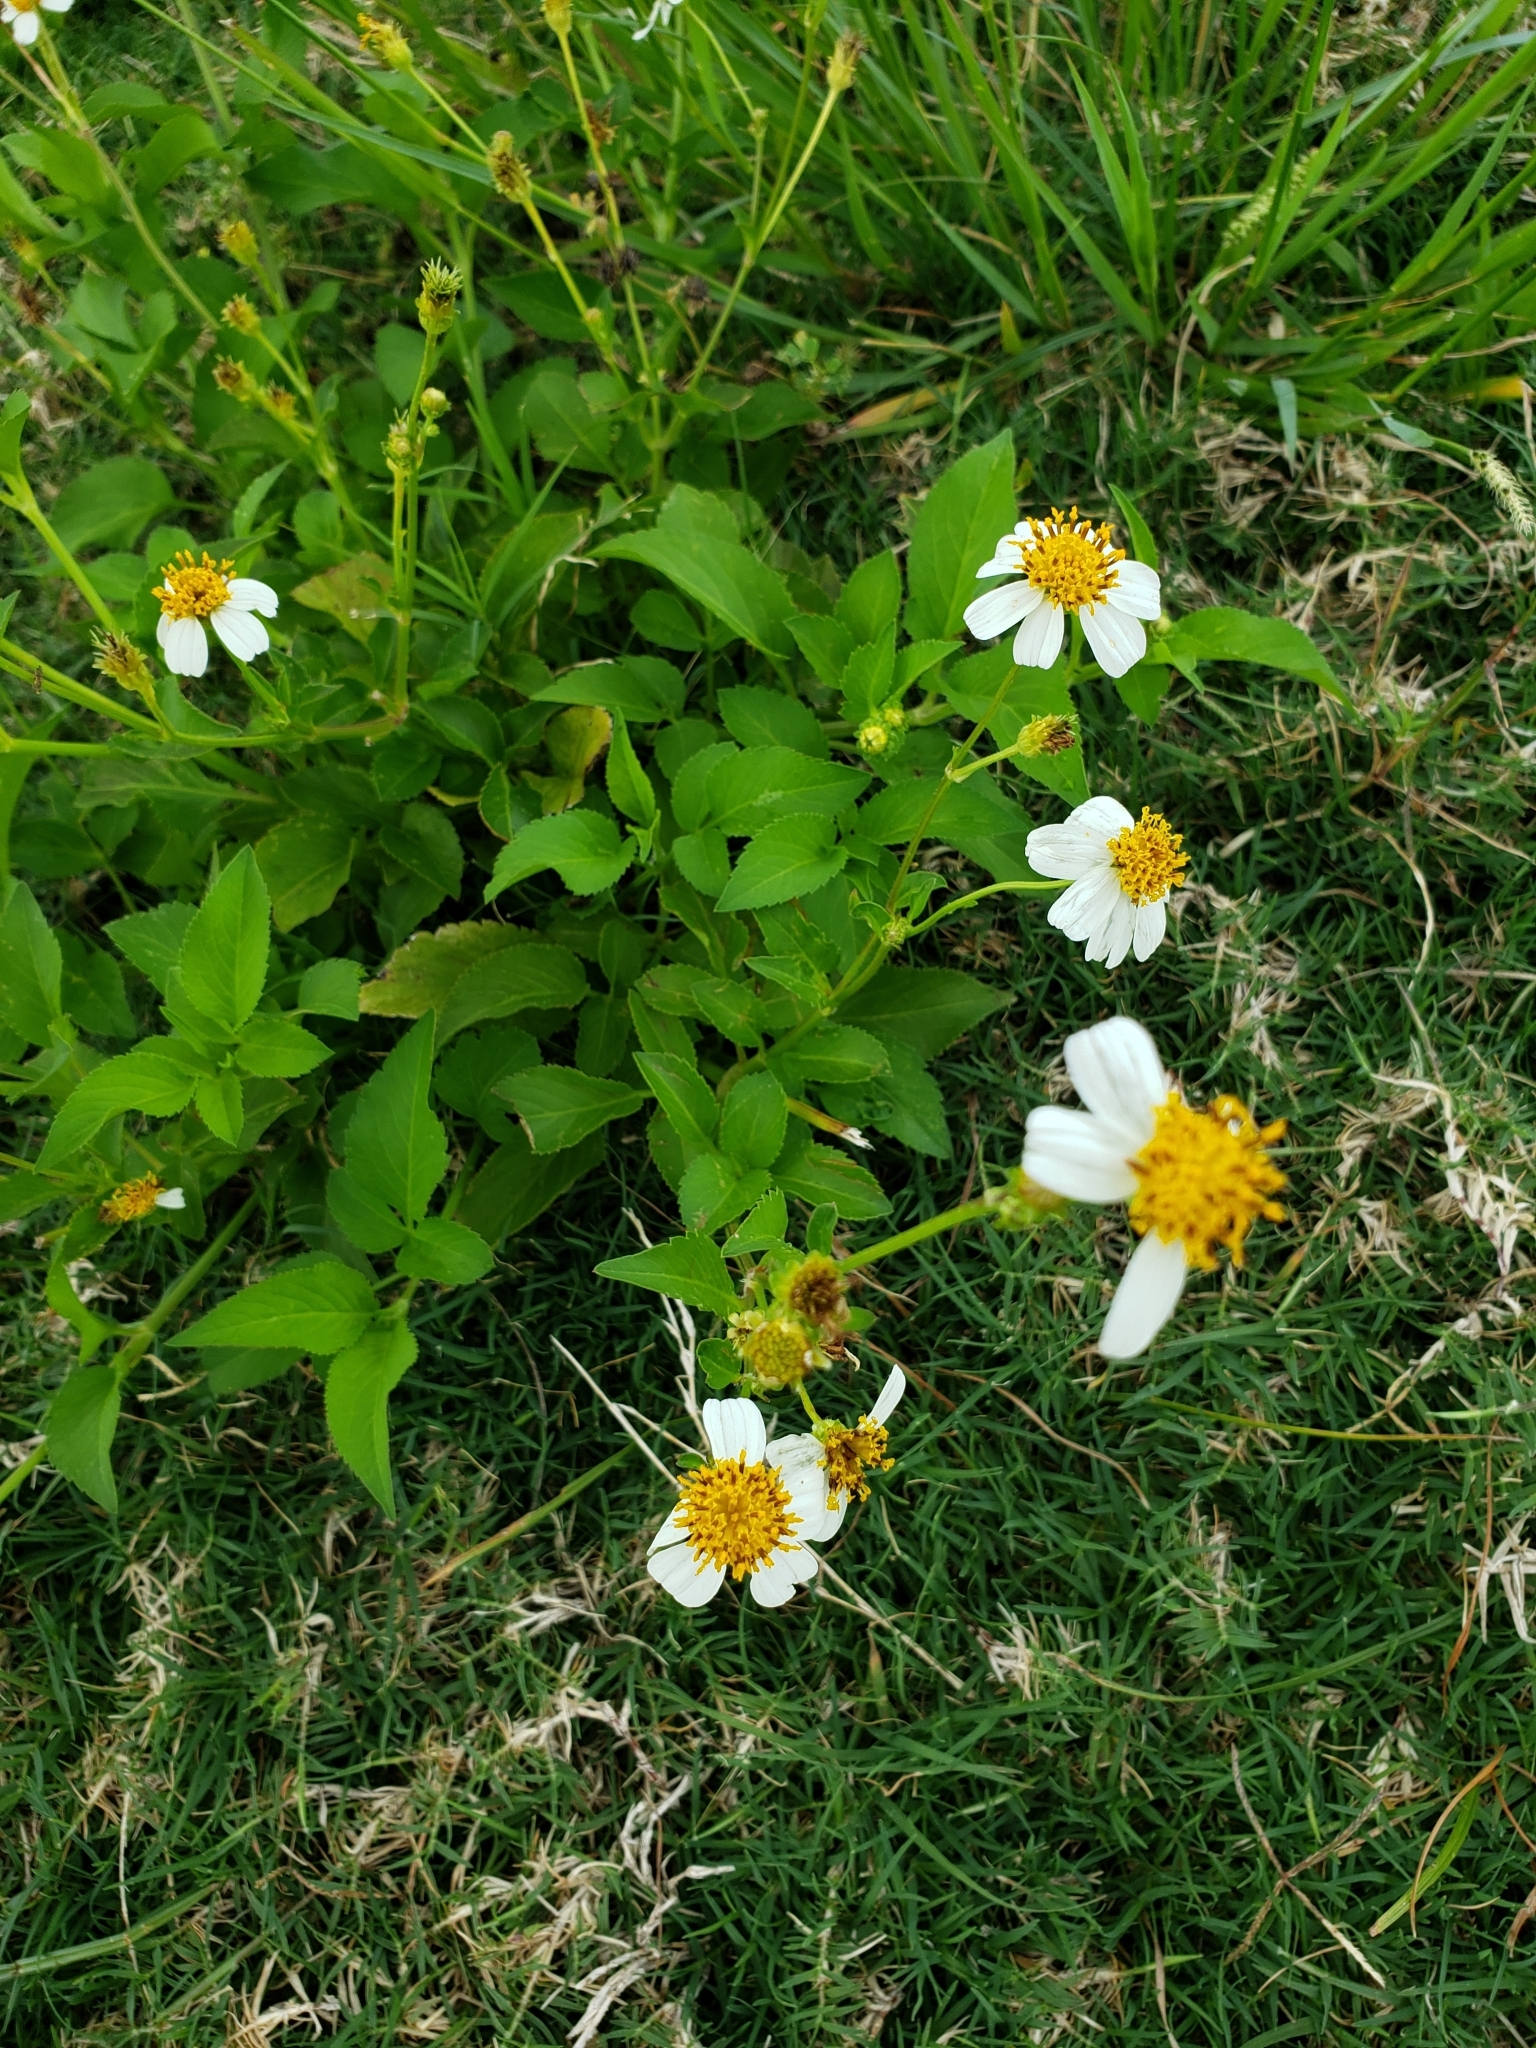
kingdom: Plantae
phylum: Tracheophyta
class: Magnoliopsida
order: Asterales
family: Asteraceae
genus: Bidens
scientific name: Bidens alba
